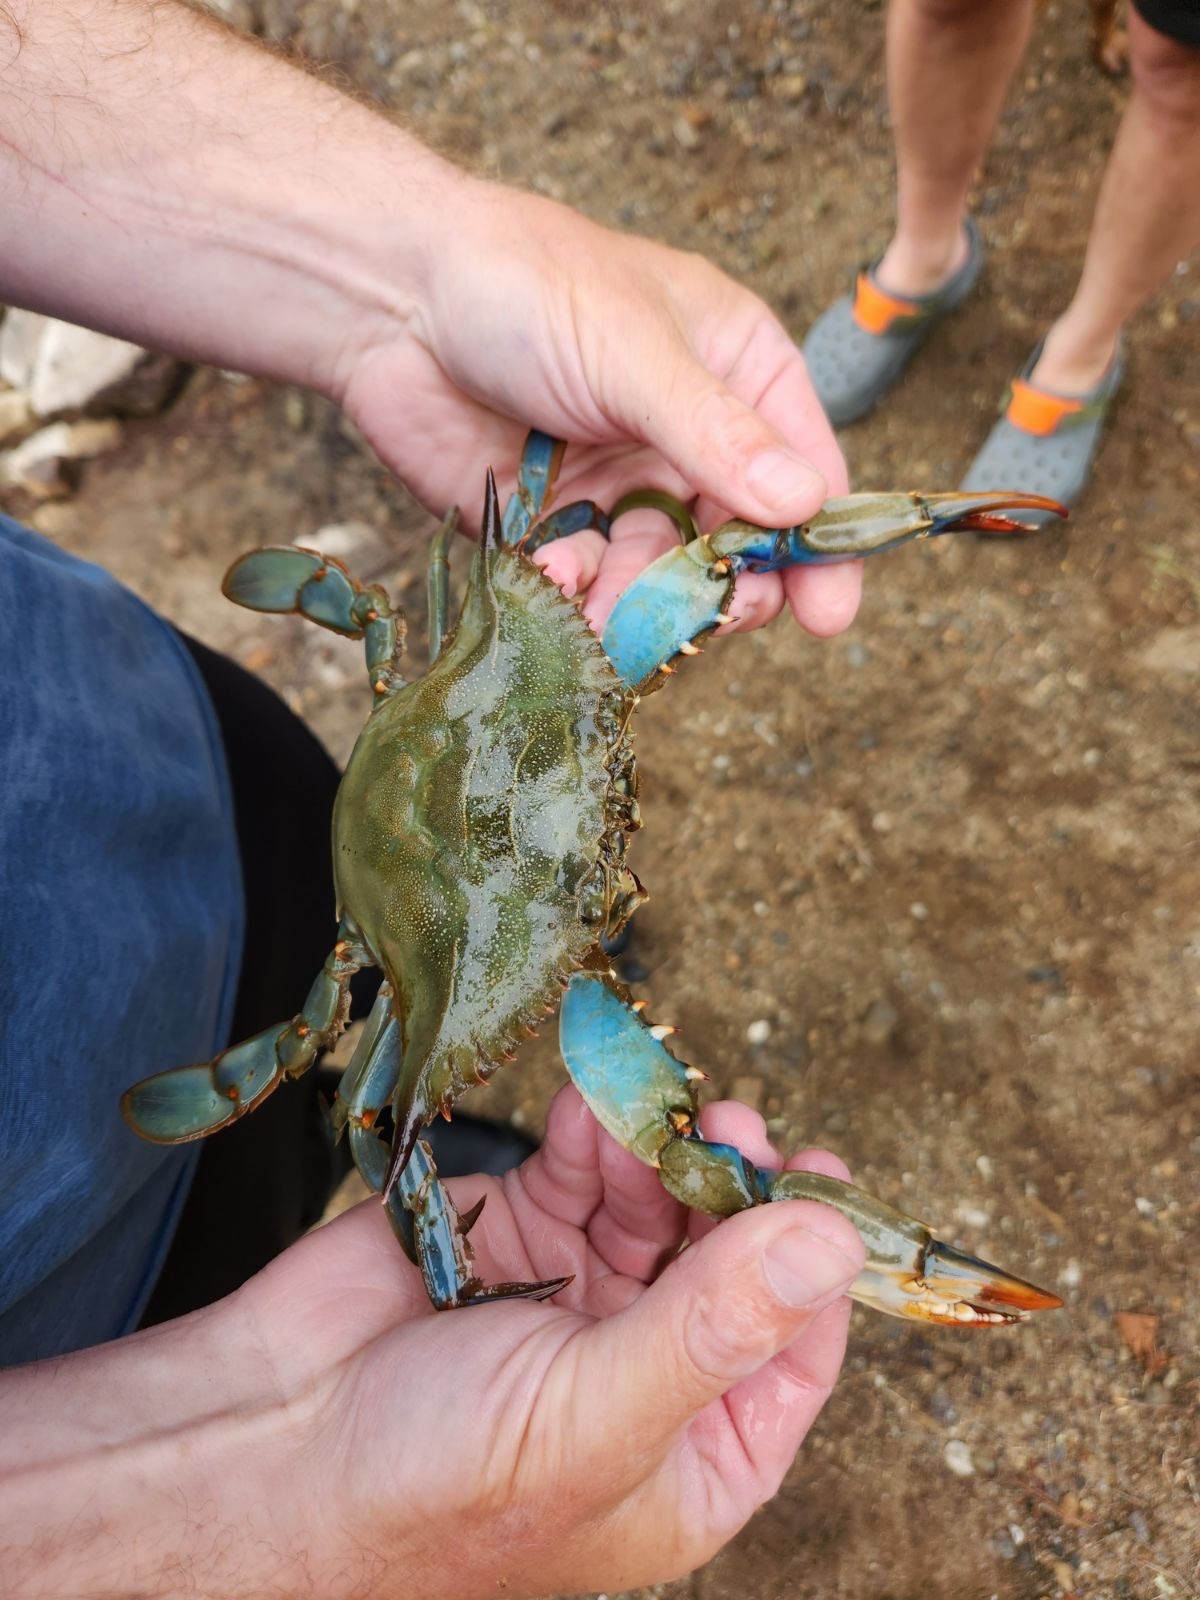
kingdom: Animalia
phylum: Arthropoda
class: Malacostraca
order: Decapoda
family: Portunidae
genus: Callinectes
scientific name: Callinectes sapidus
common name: Blue crab
